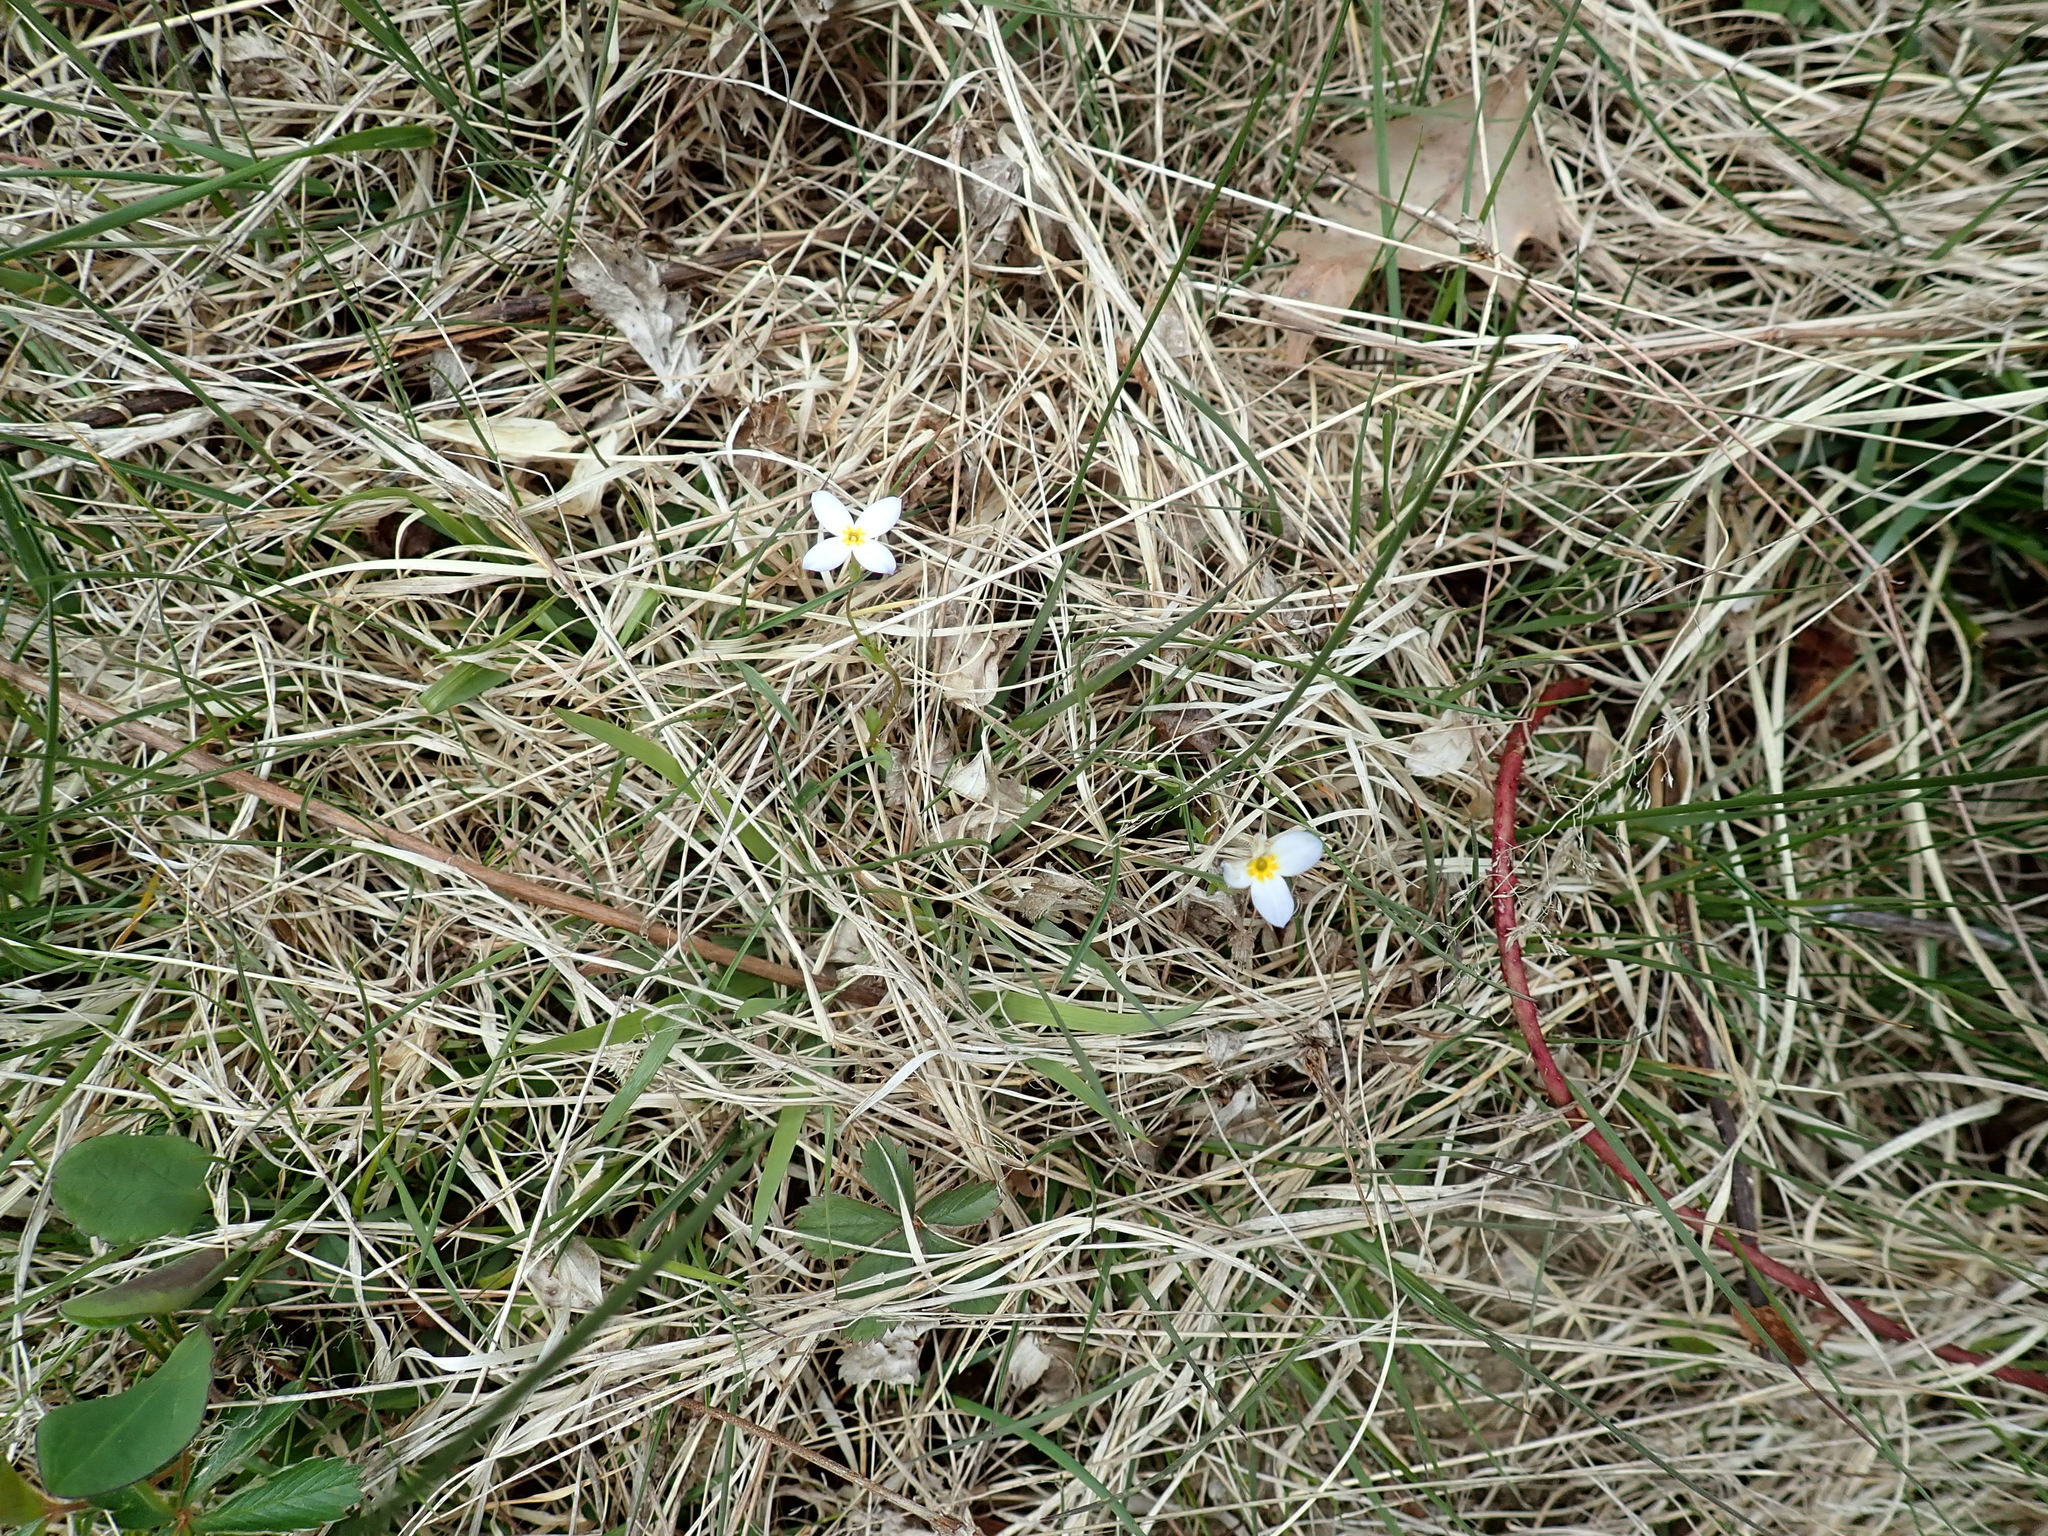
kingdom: Plantae
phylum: Tracheophyta
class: Magnoliopsida
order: Gentianales
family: Rubiaceae
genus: Houstonia
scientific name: Houstonia caerulea
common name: Bluets
